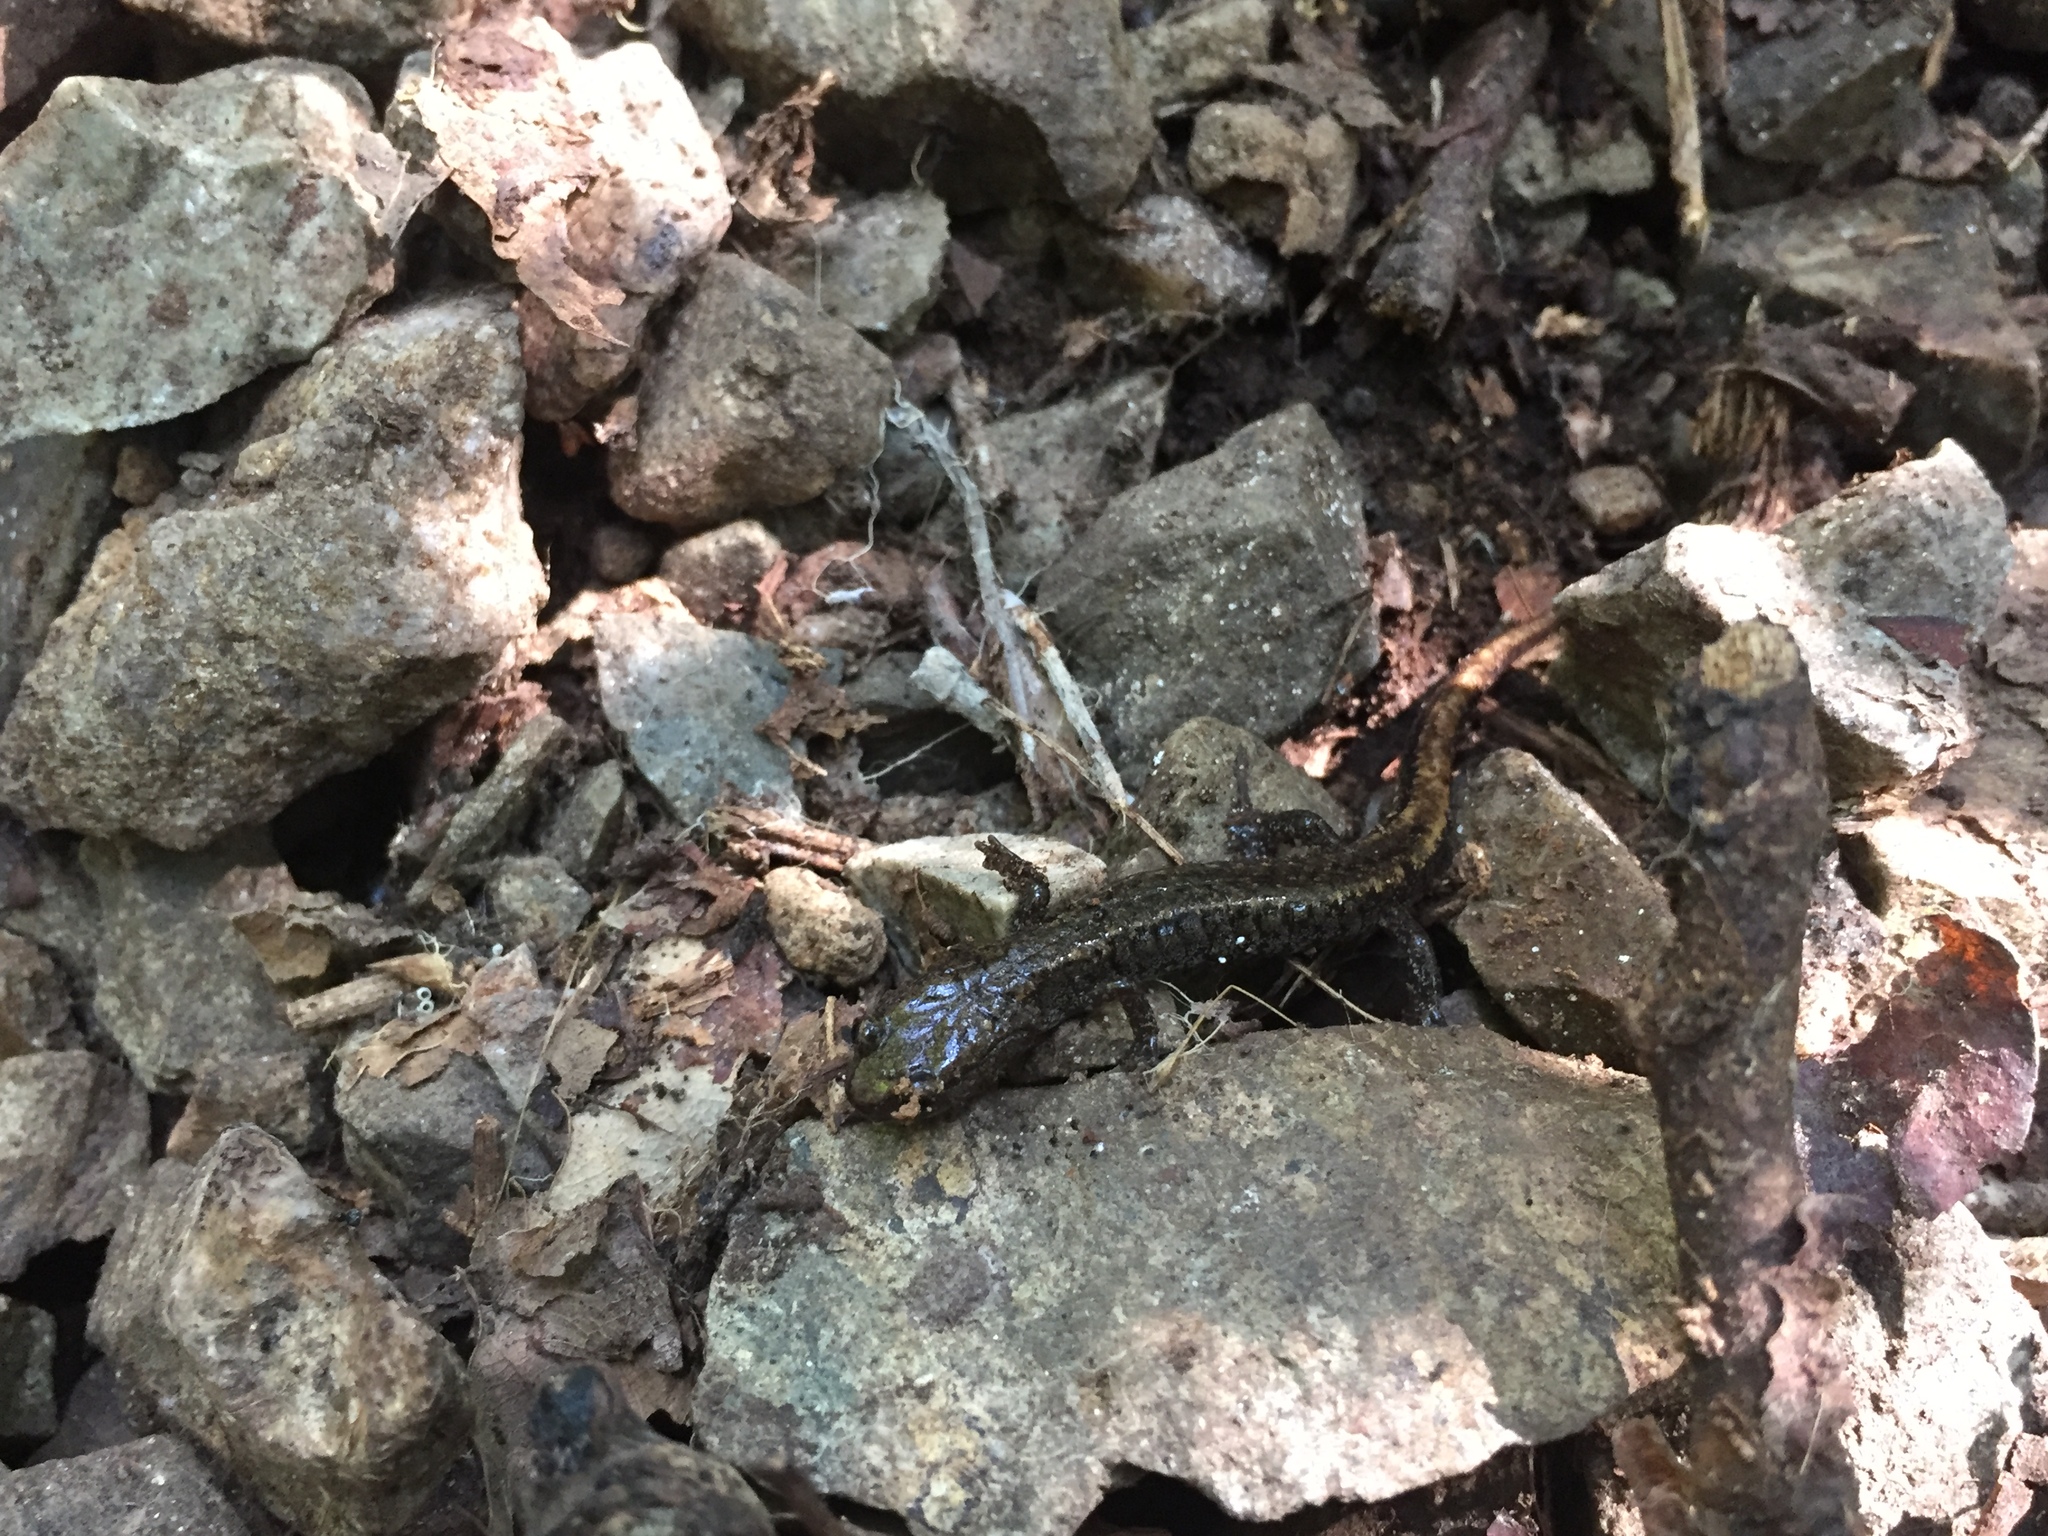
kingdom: Animalia
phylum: Chordata
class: Amphibia
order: Caudata
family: Plethodontidae
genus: Karsenia
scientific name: Karsenia koreana
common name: Korean crevice salamander
